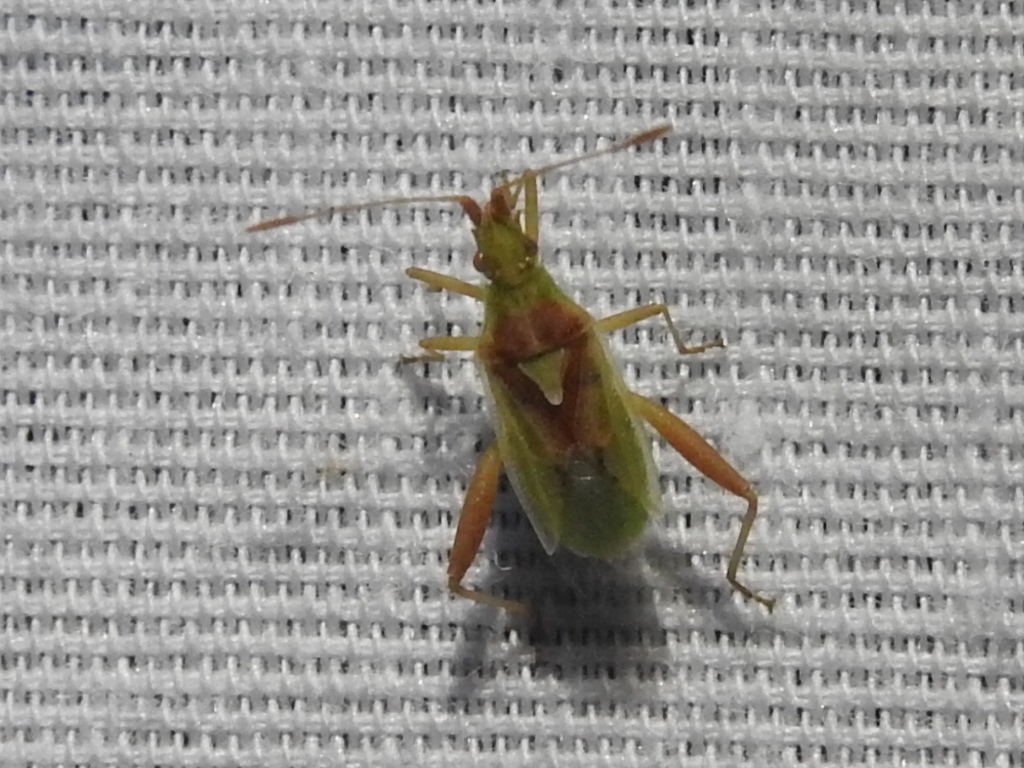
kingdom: Animalia
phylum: Arthropoda
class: Insecta
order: Hemiptera
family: Rhopalidae
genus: Harmostes
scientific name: Harmostes reflexulus
